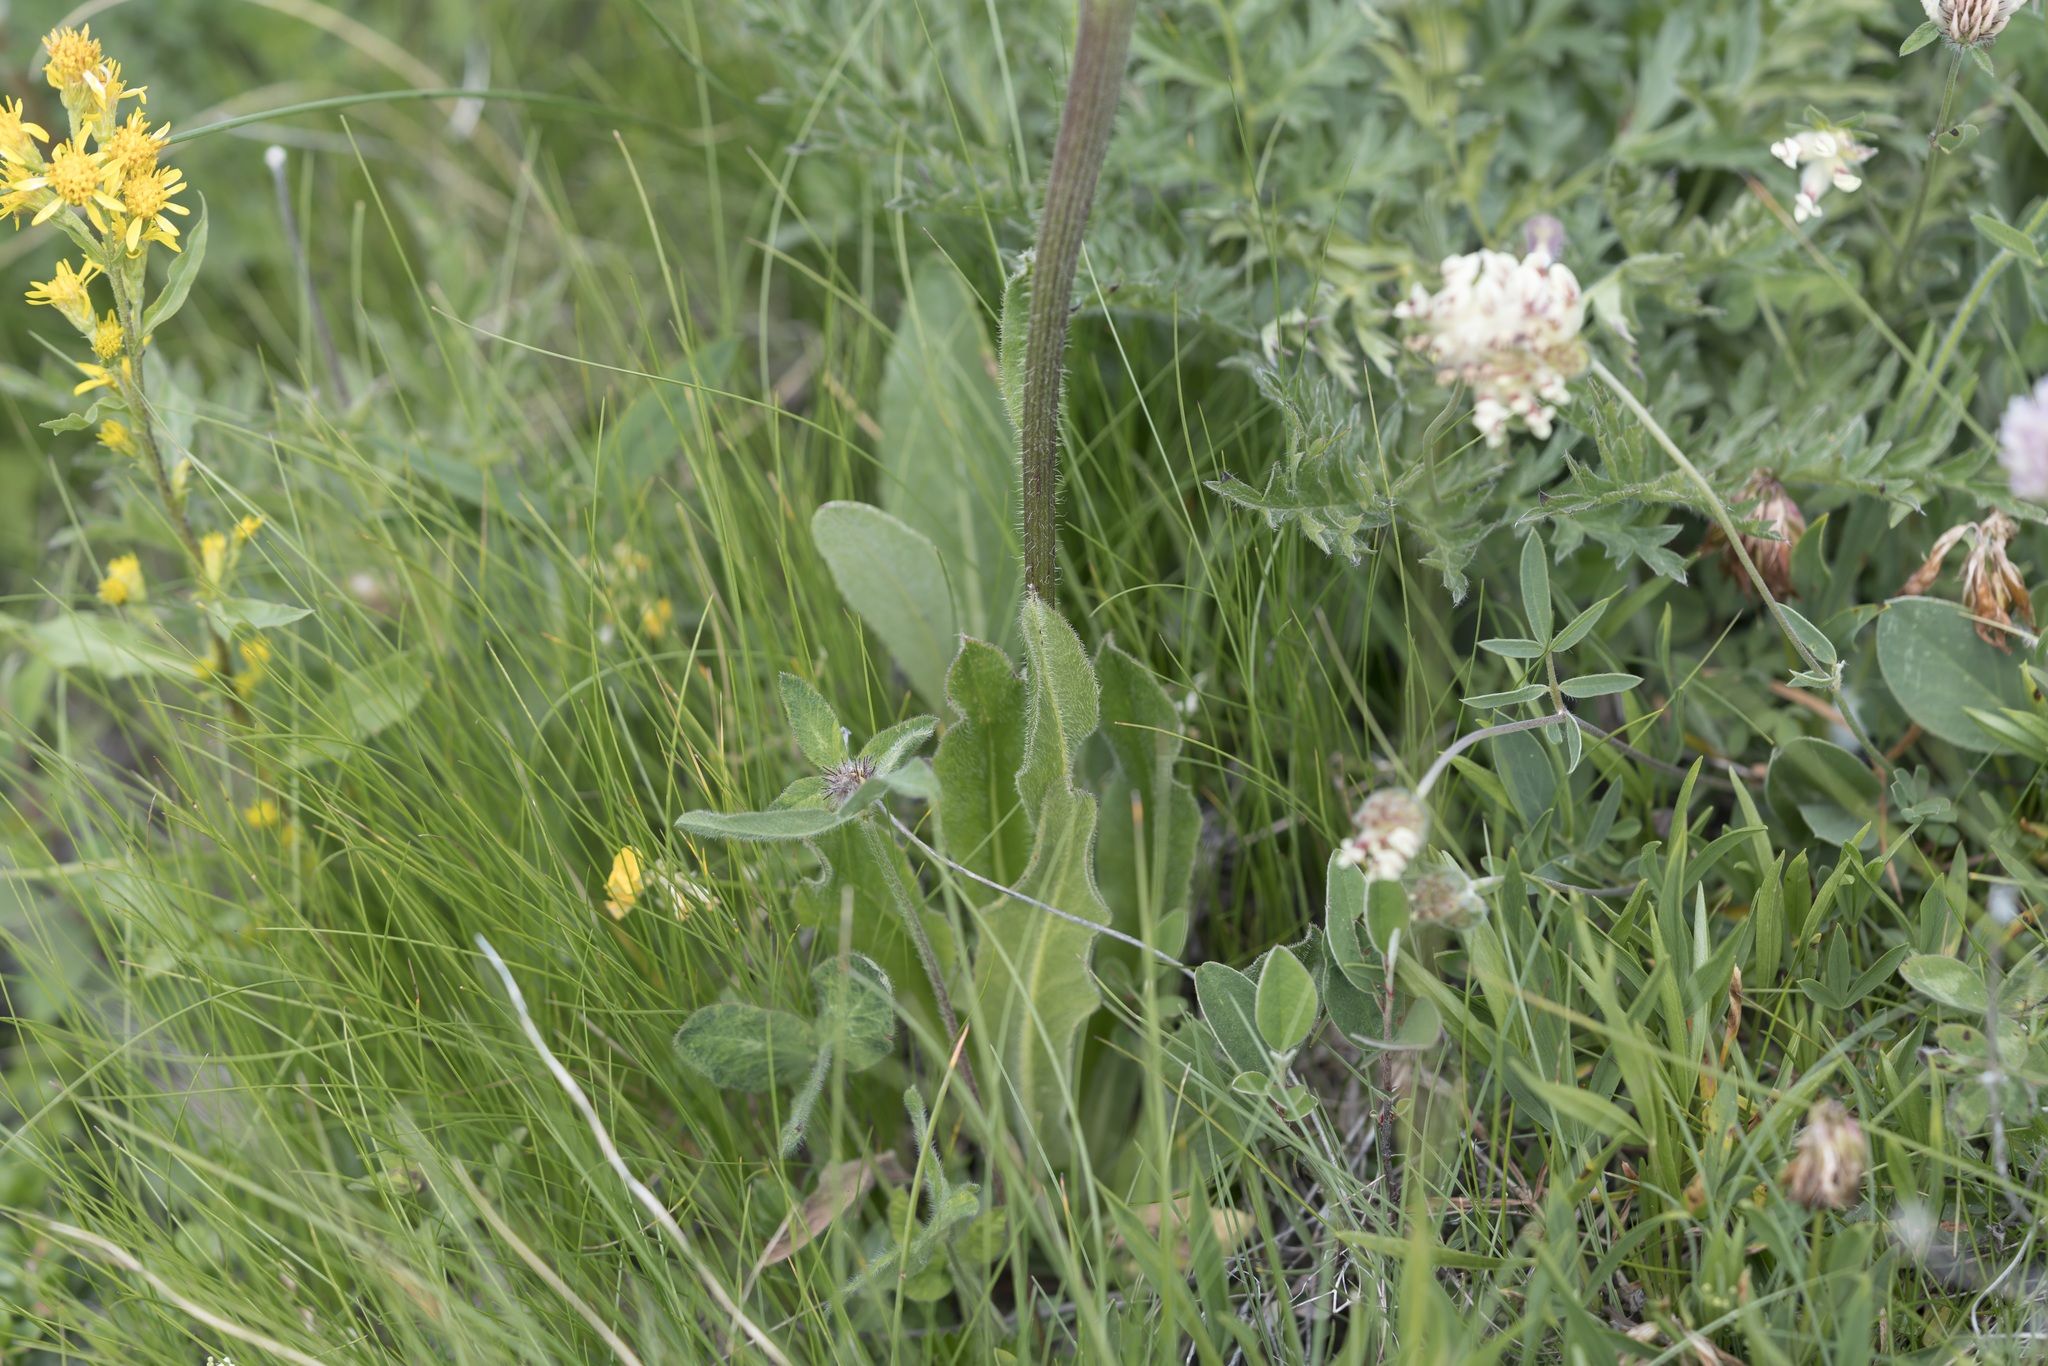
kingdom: Plantae
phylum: Tracheophyta
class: Magnoliopsida
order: Asterales
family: Asteraceae
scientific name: Asteraceae
